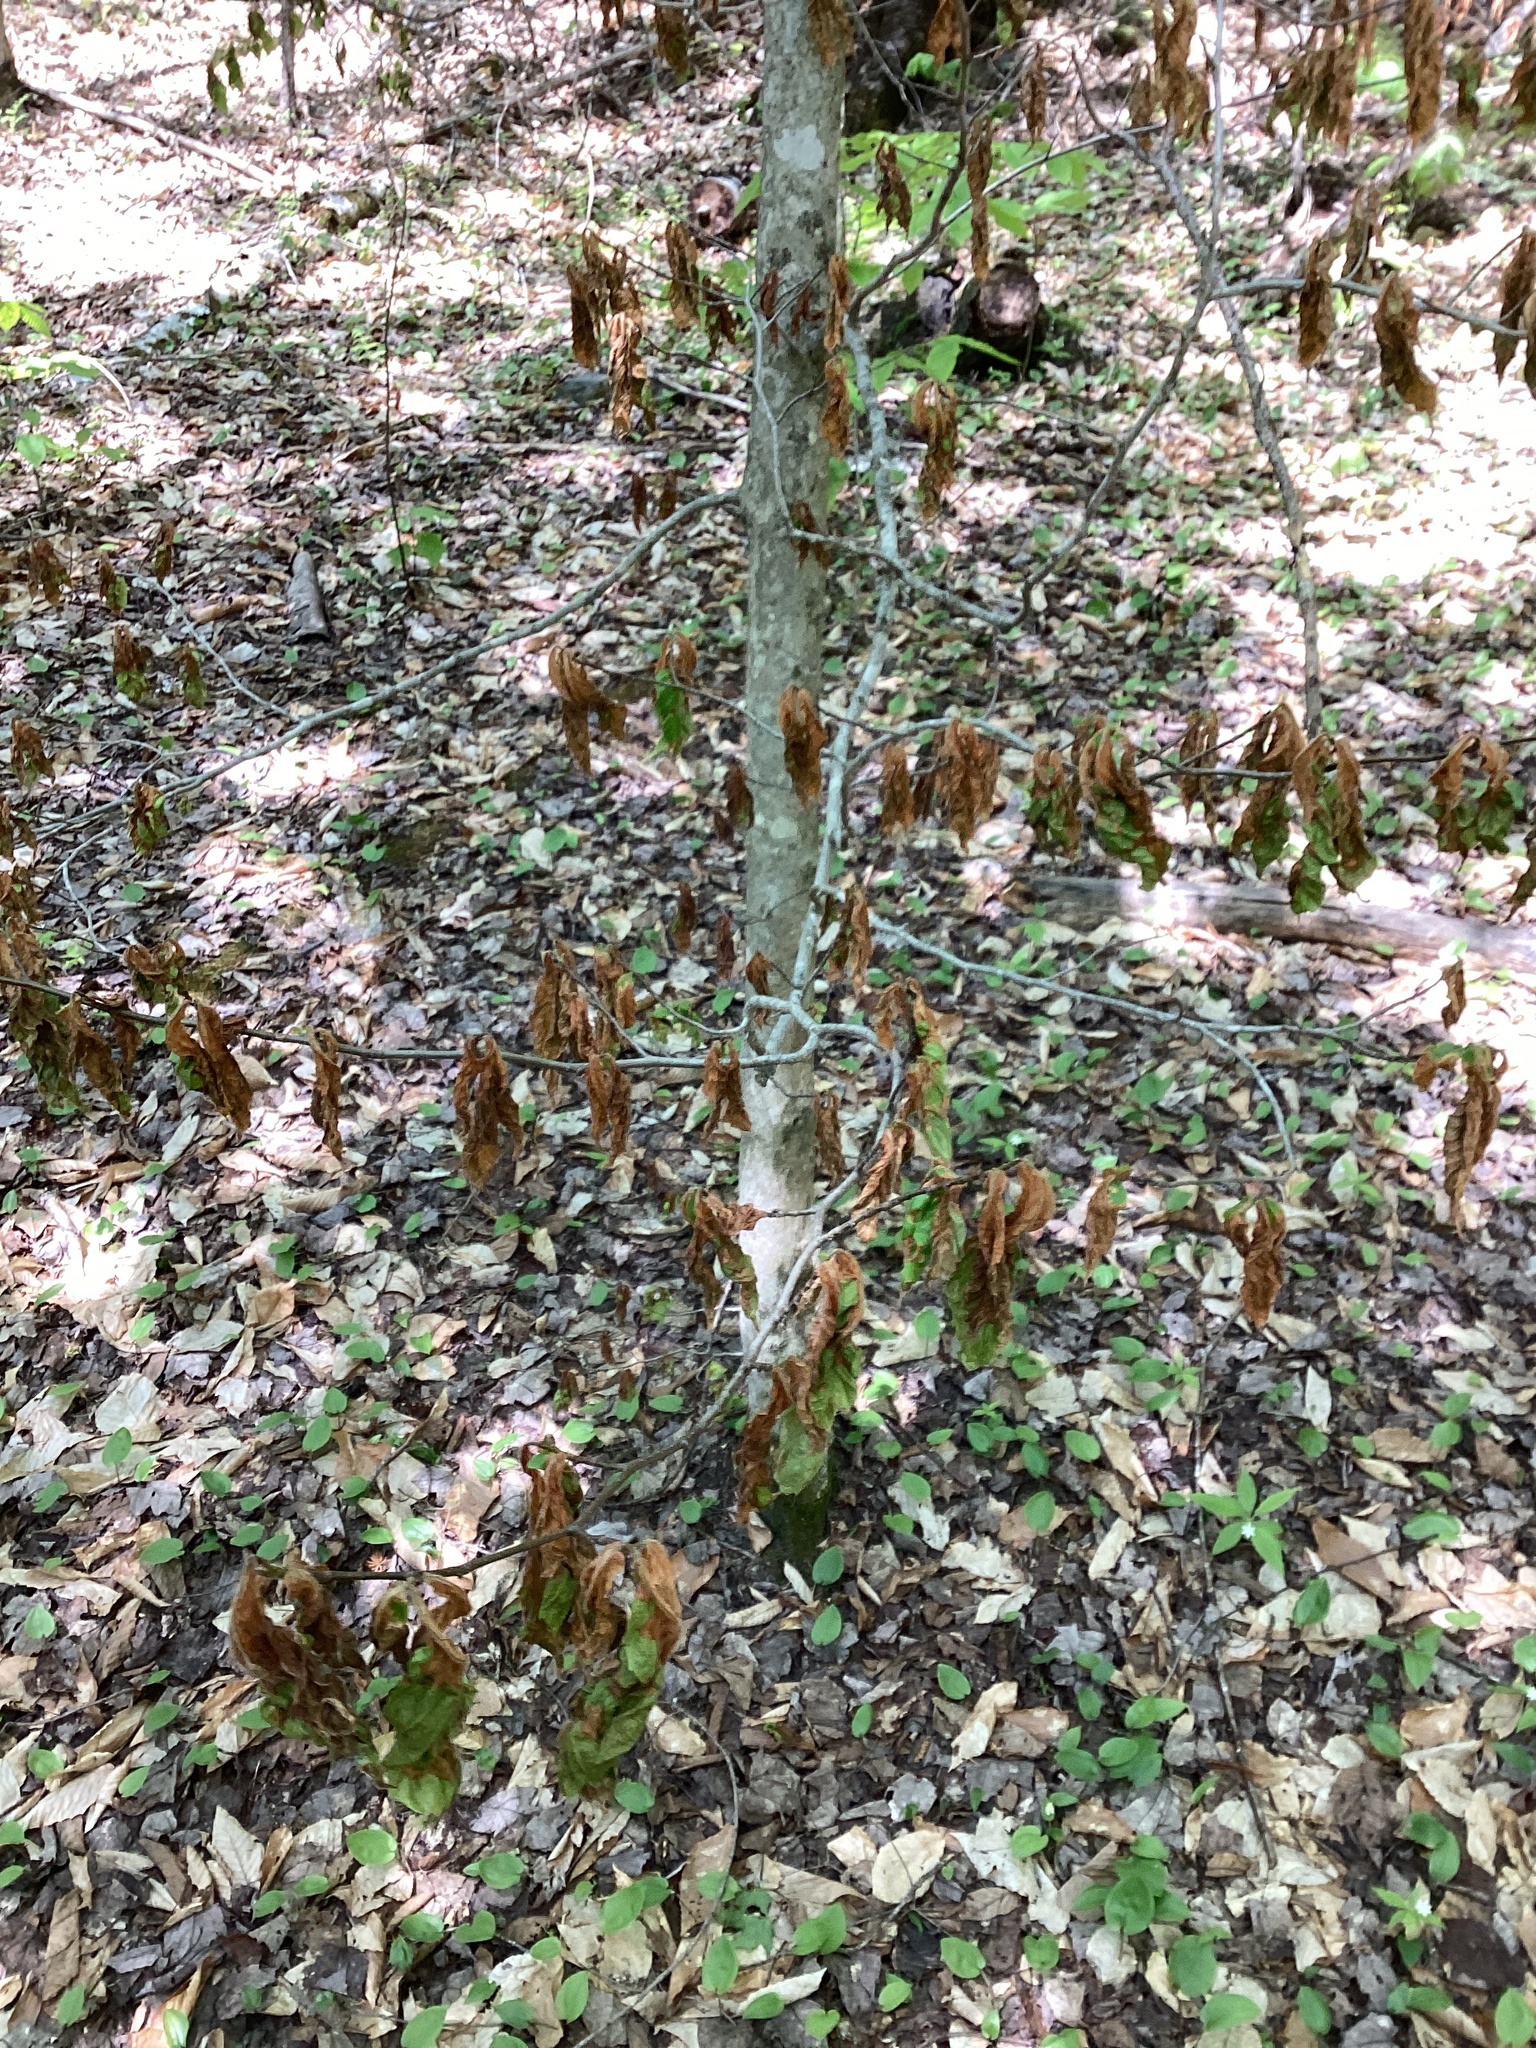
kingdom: Plantae
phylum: Tracheophyta
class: Magnoliopsida
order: Fagales
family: Fagaceae
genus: Fagus
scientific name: Fagus grandifolia
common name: American beech
